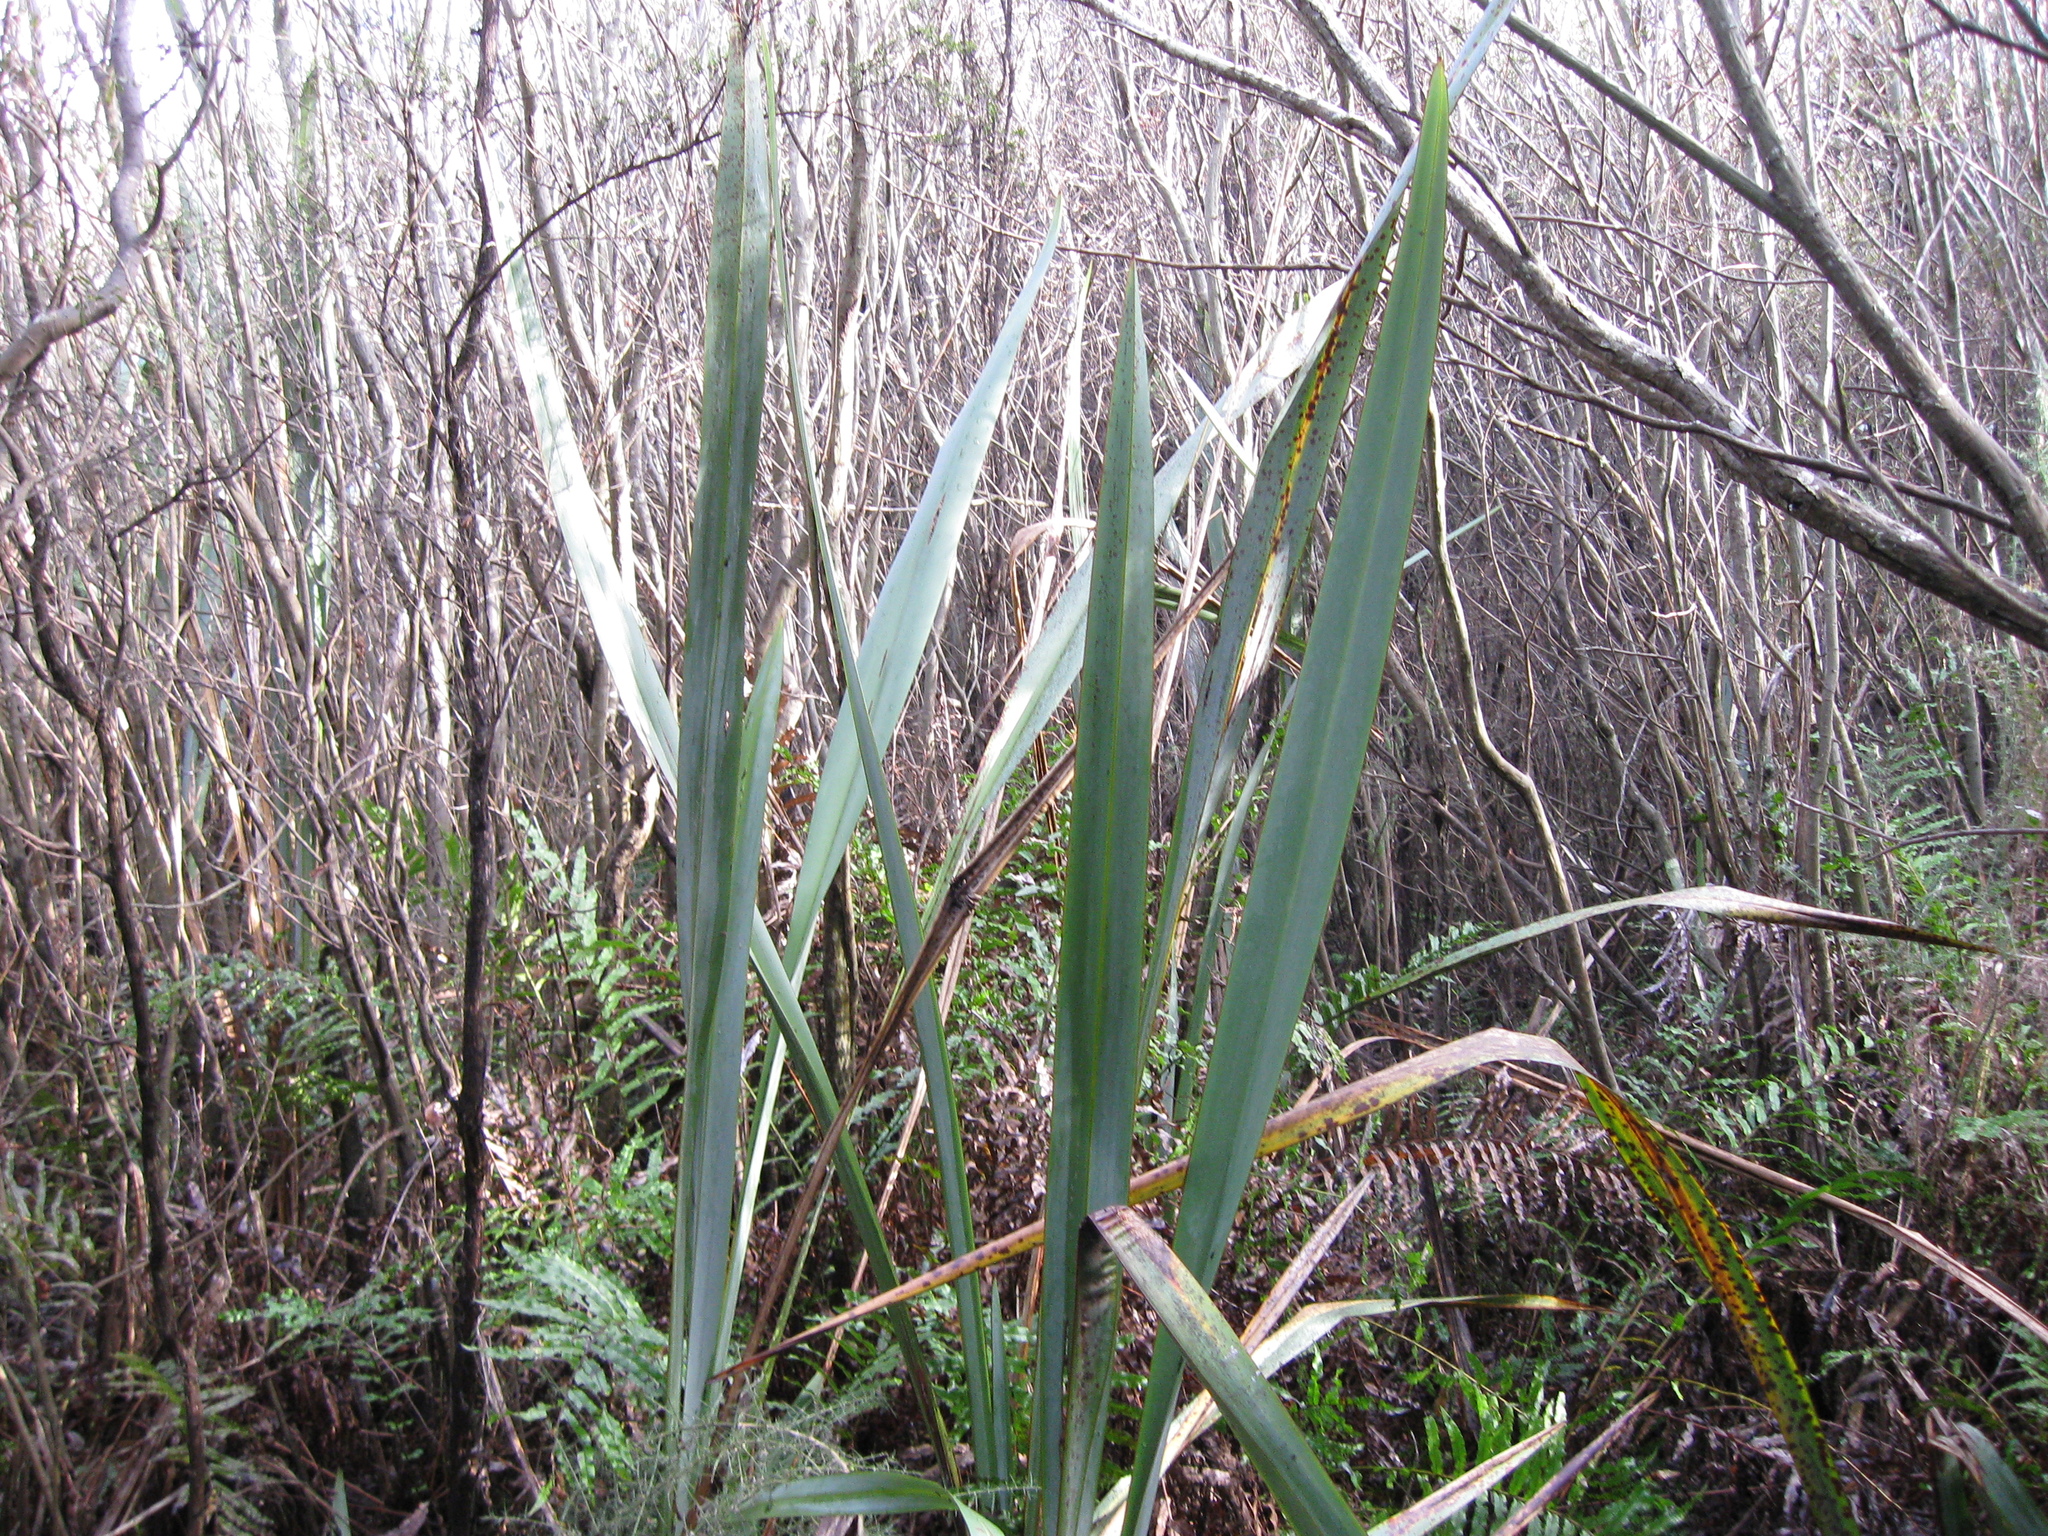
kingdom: Plantae
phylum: Tracheophyta
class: Liliopsida
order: Asparagales
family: Asphodelaceae
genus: Phormium
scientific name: Phormium tenax
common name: New zealand flax
